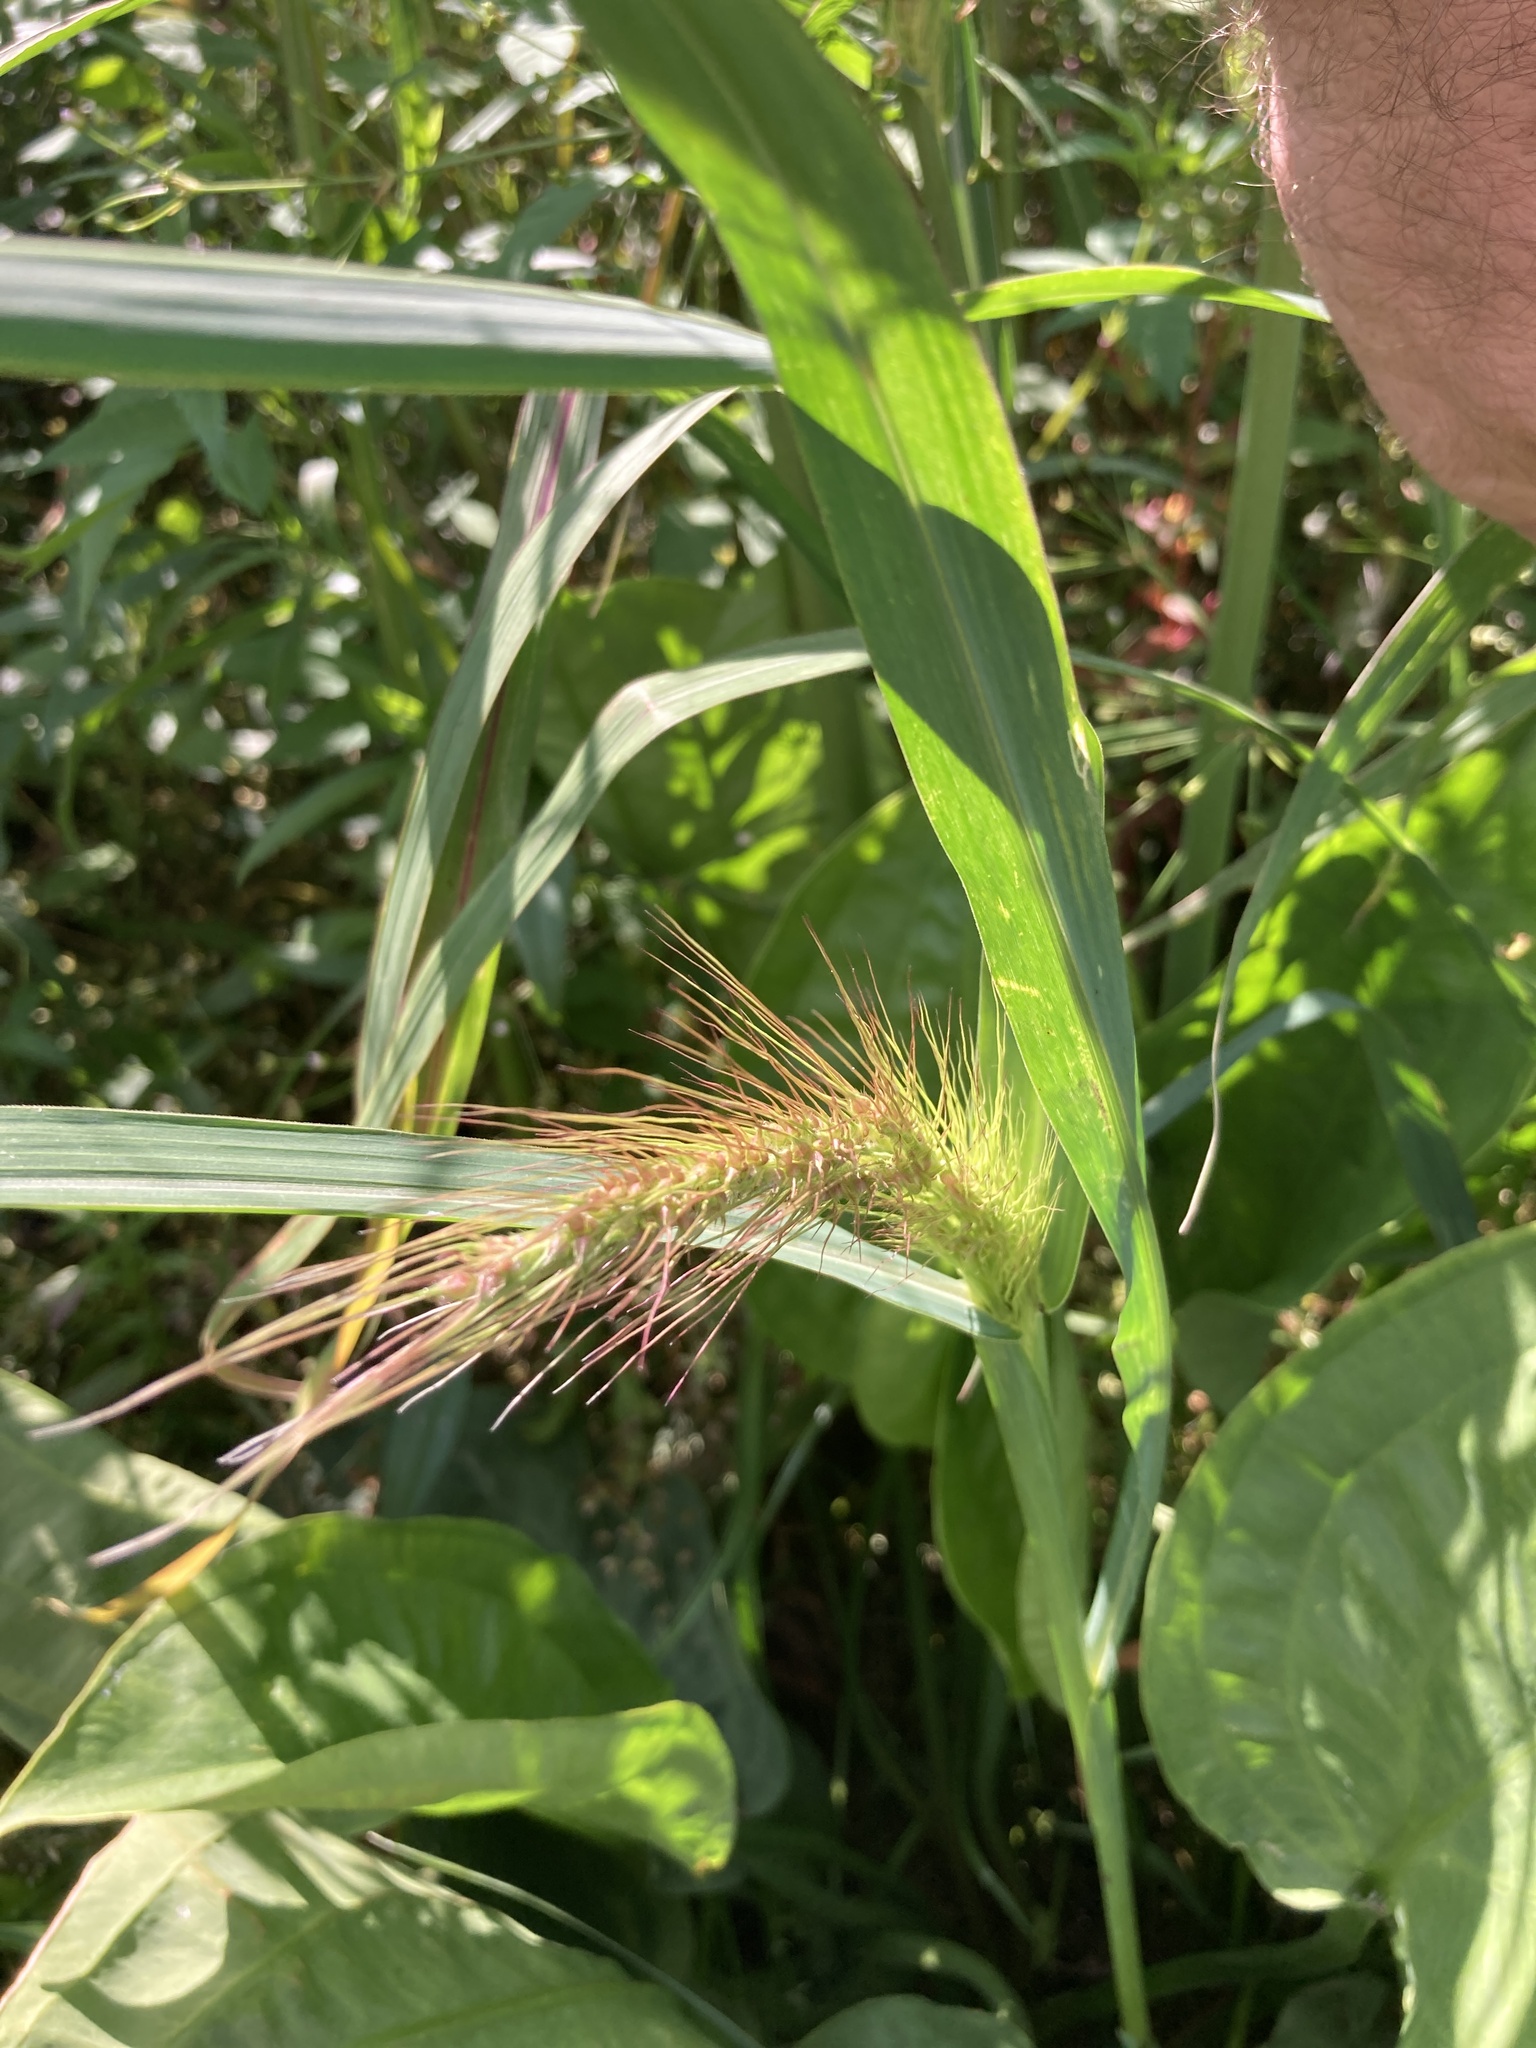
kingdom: Plantae
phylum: Tracheophyta
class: Liliopsida
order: Poales
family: Poaceae
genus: Echinochloa
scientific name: Echinochloa crus-galli
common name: Cockspur
